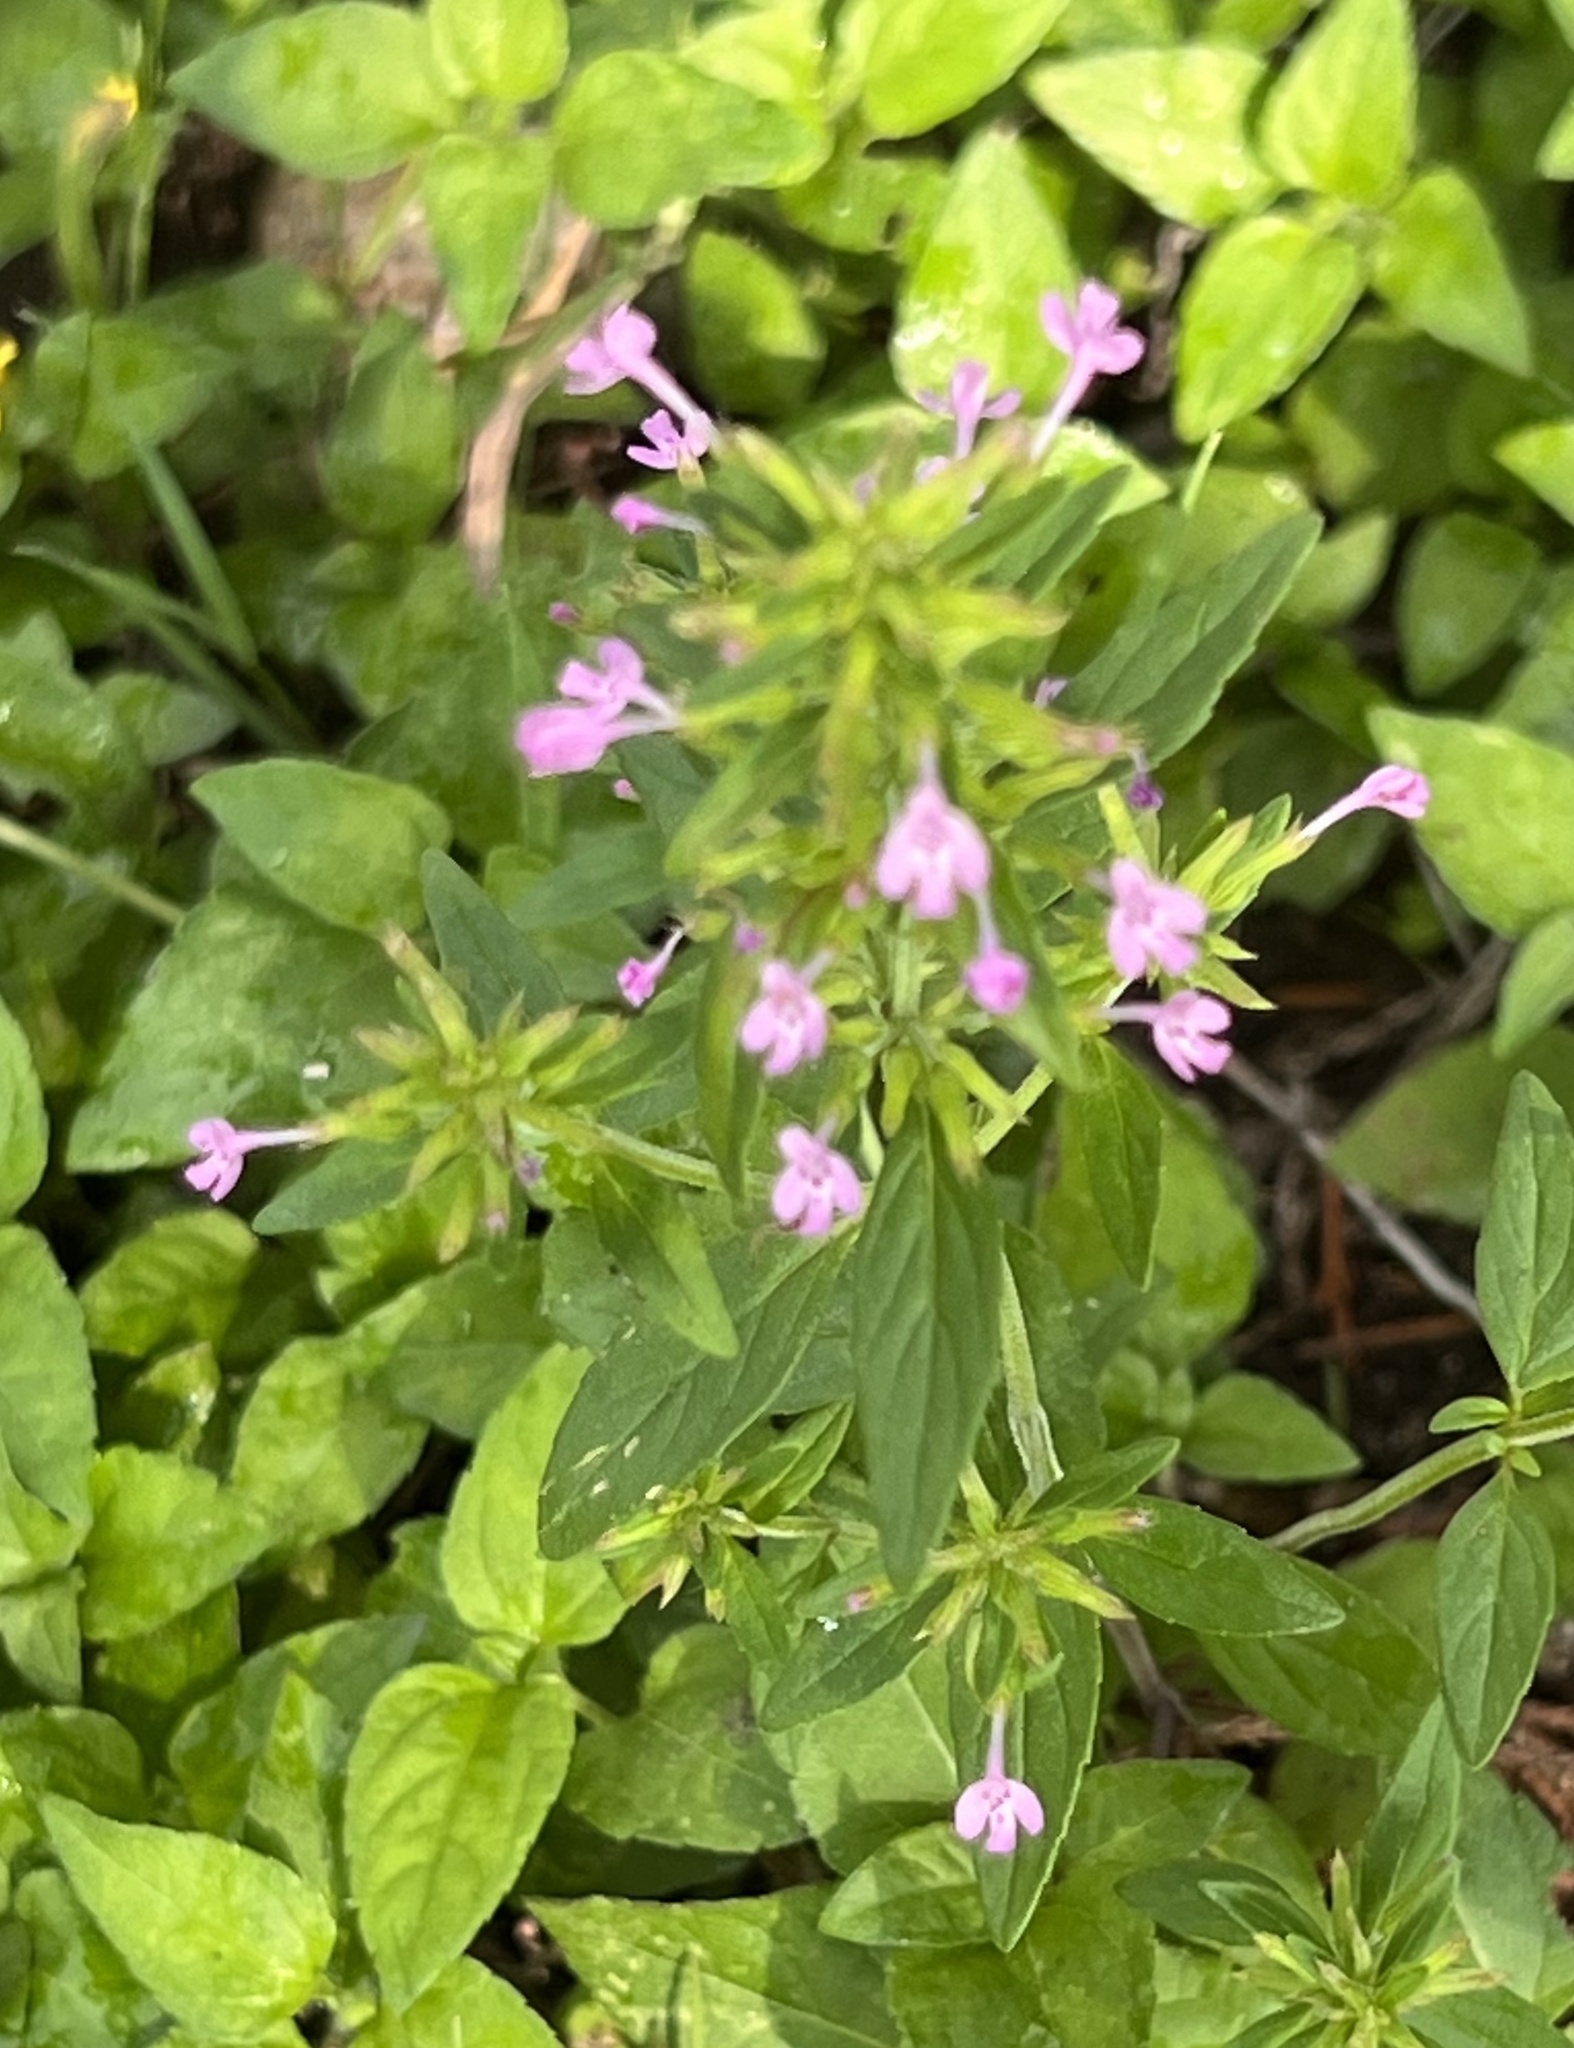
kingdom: Plantae
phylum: Tracheophyta
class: Magnoliopsida
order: Lamiales
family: Lamiaceae
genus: Hedeoma
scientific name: Hedeoma acinoides
